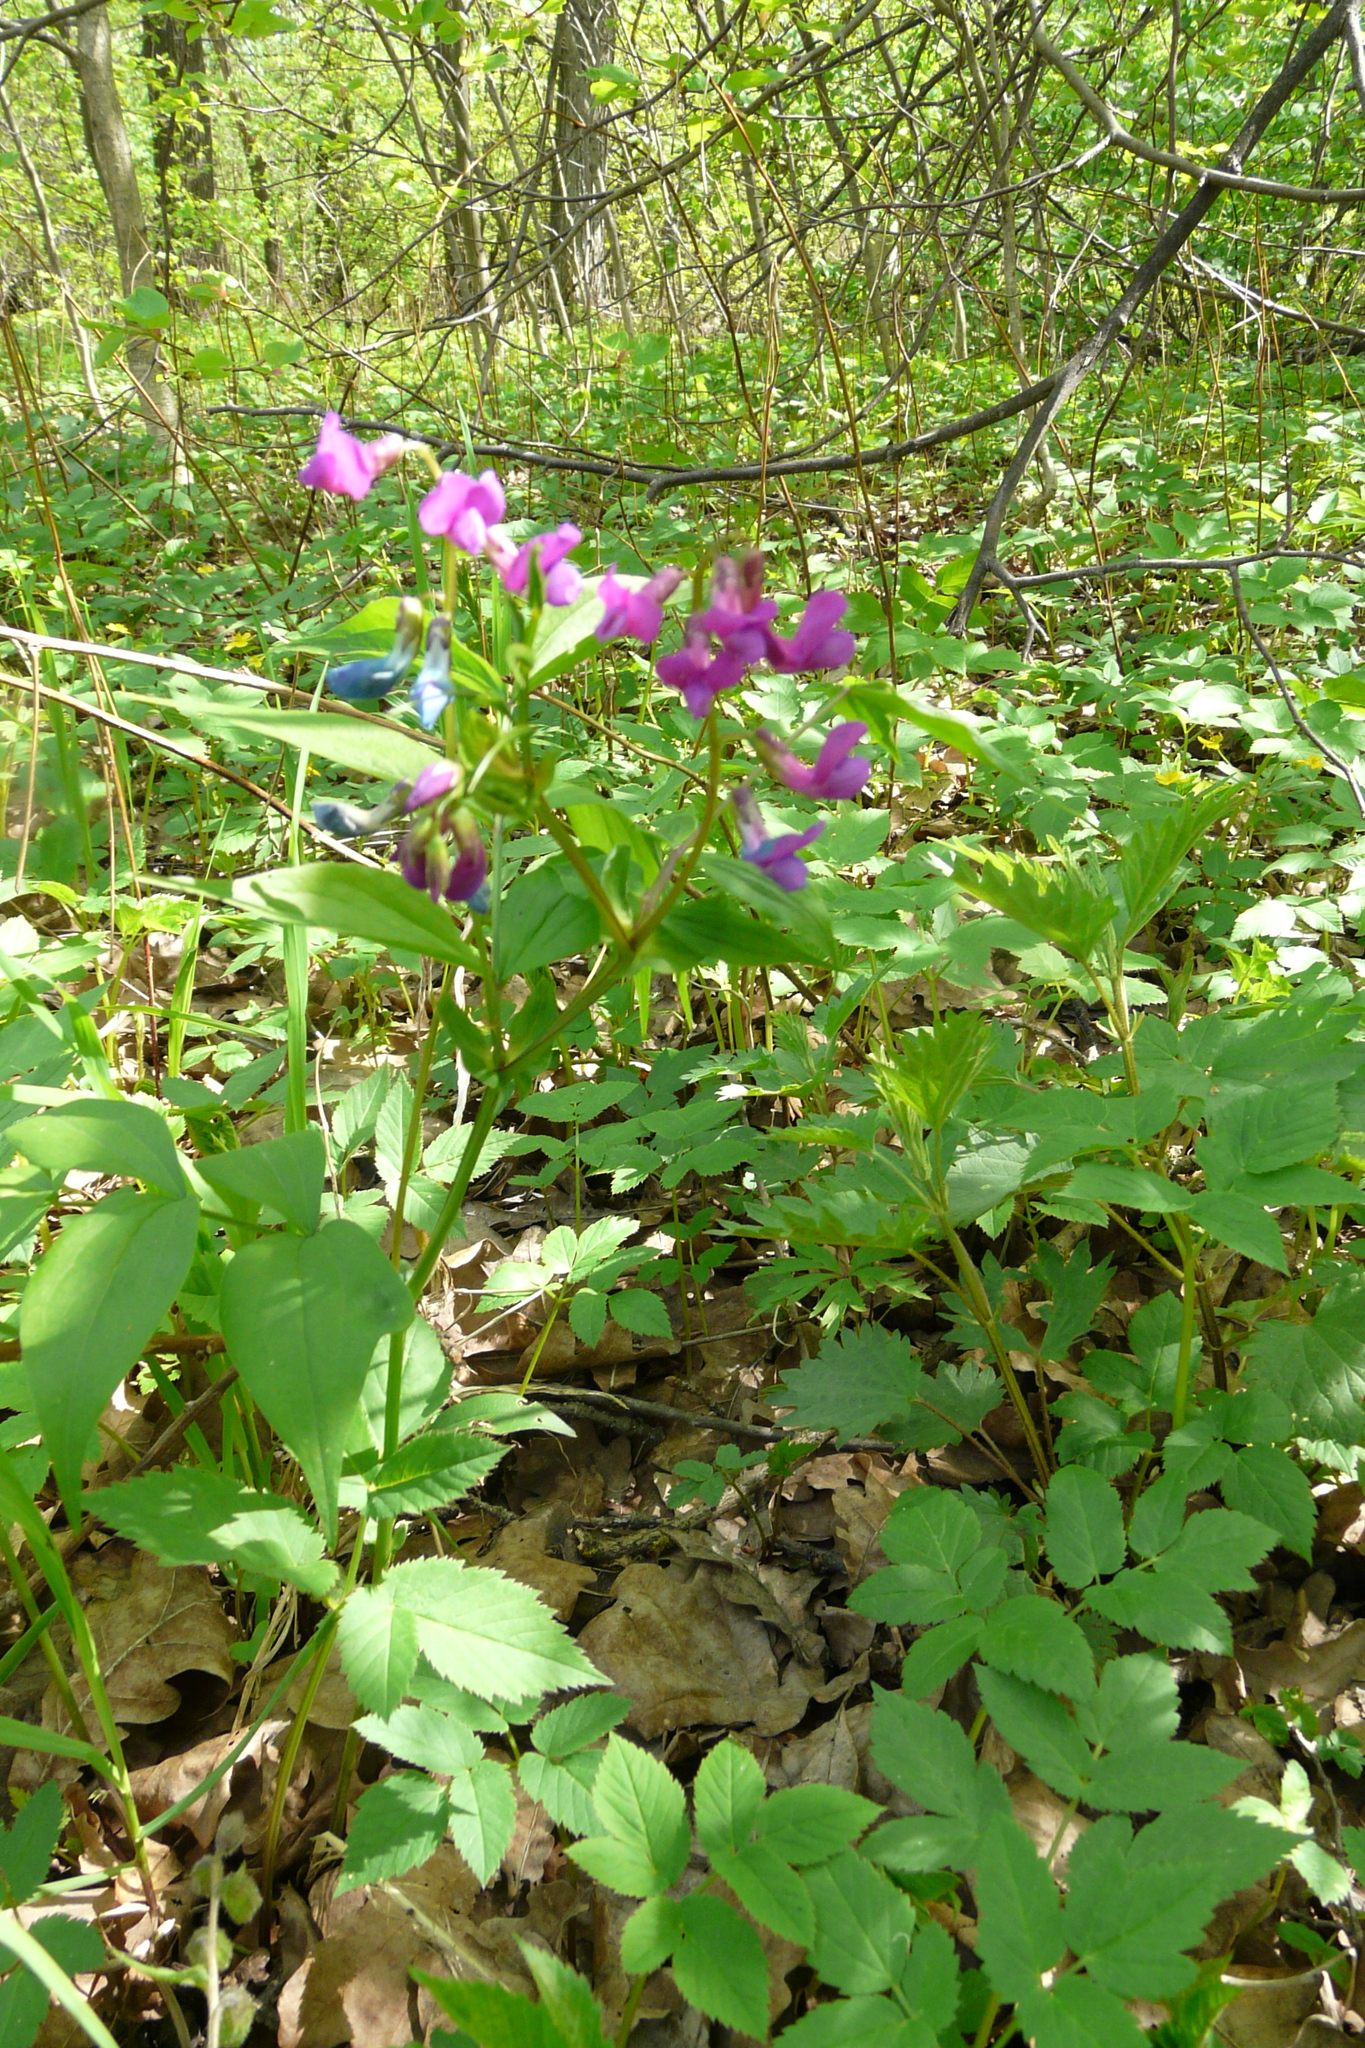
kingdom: Plantae
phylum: Tracheophyta
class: Magnoliopsida
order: Fabales
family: Fabaceae
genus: Lathyrus
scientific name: Lathyrus vernus
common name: Spring pea
